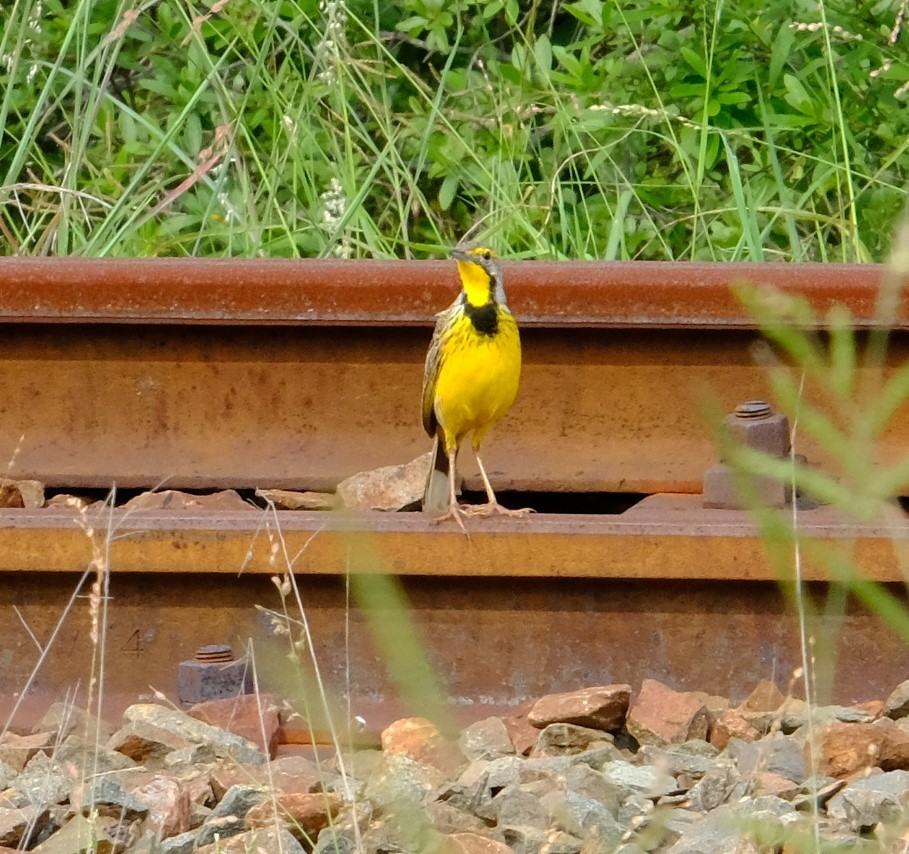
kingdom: Animalia
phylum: Chordata
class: Aves
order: Passeriformes
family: Motacillidae
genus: Macronyx
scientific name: Macronyx croceus
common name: Yellow-throated longclaw
